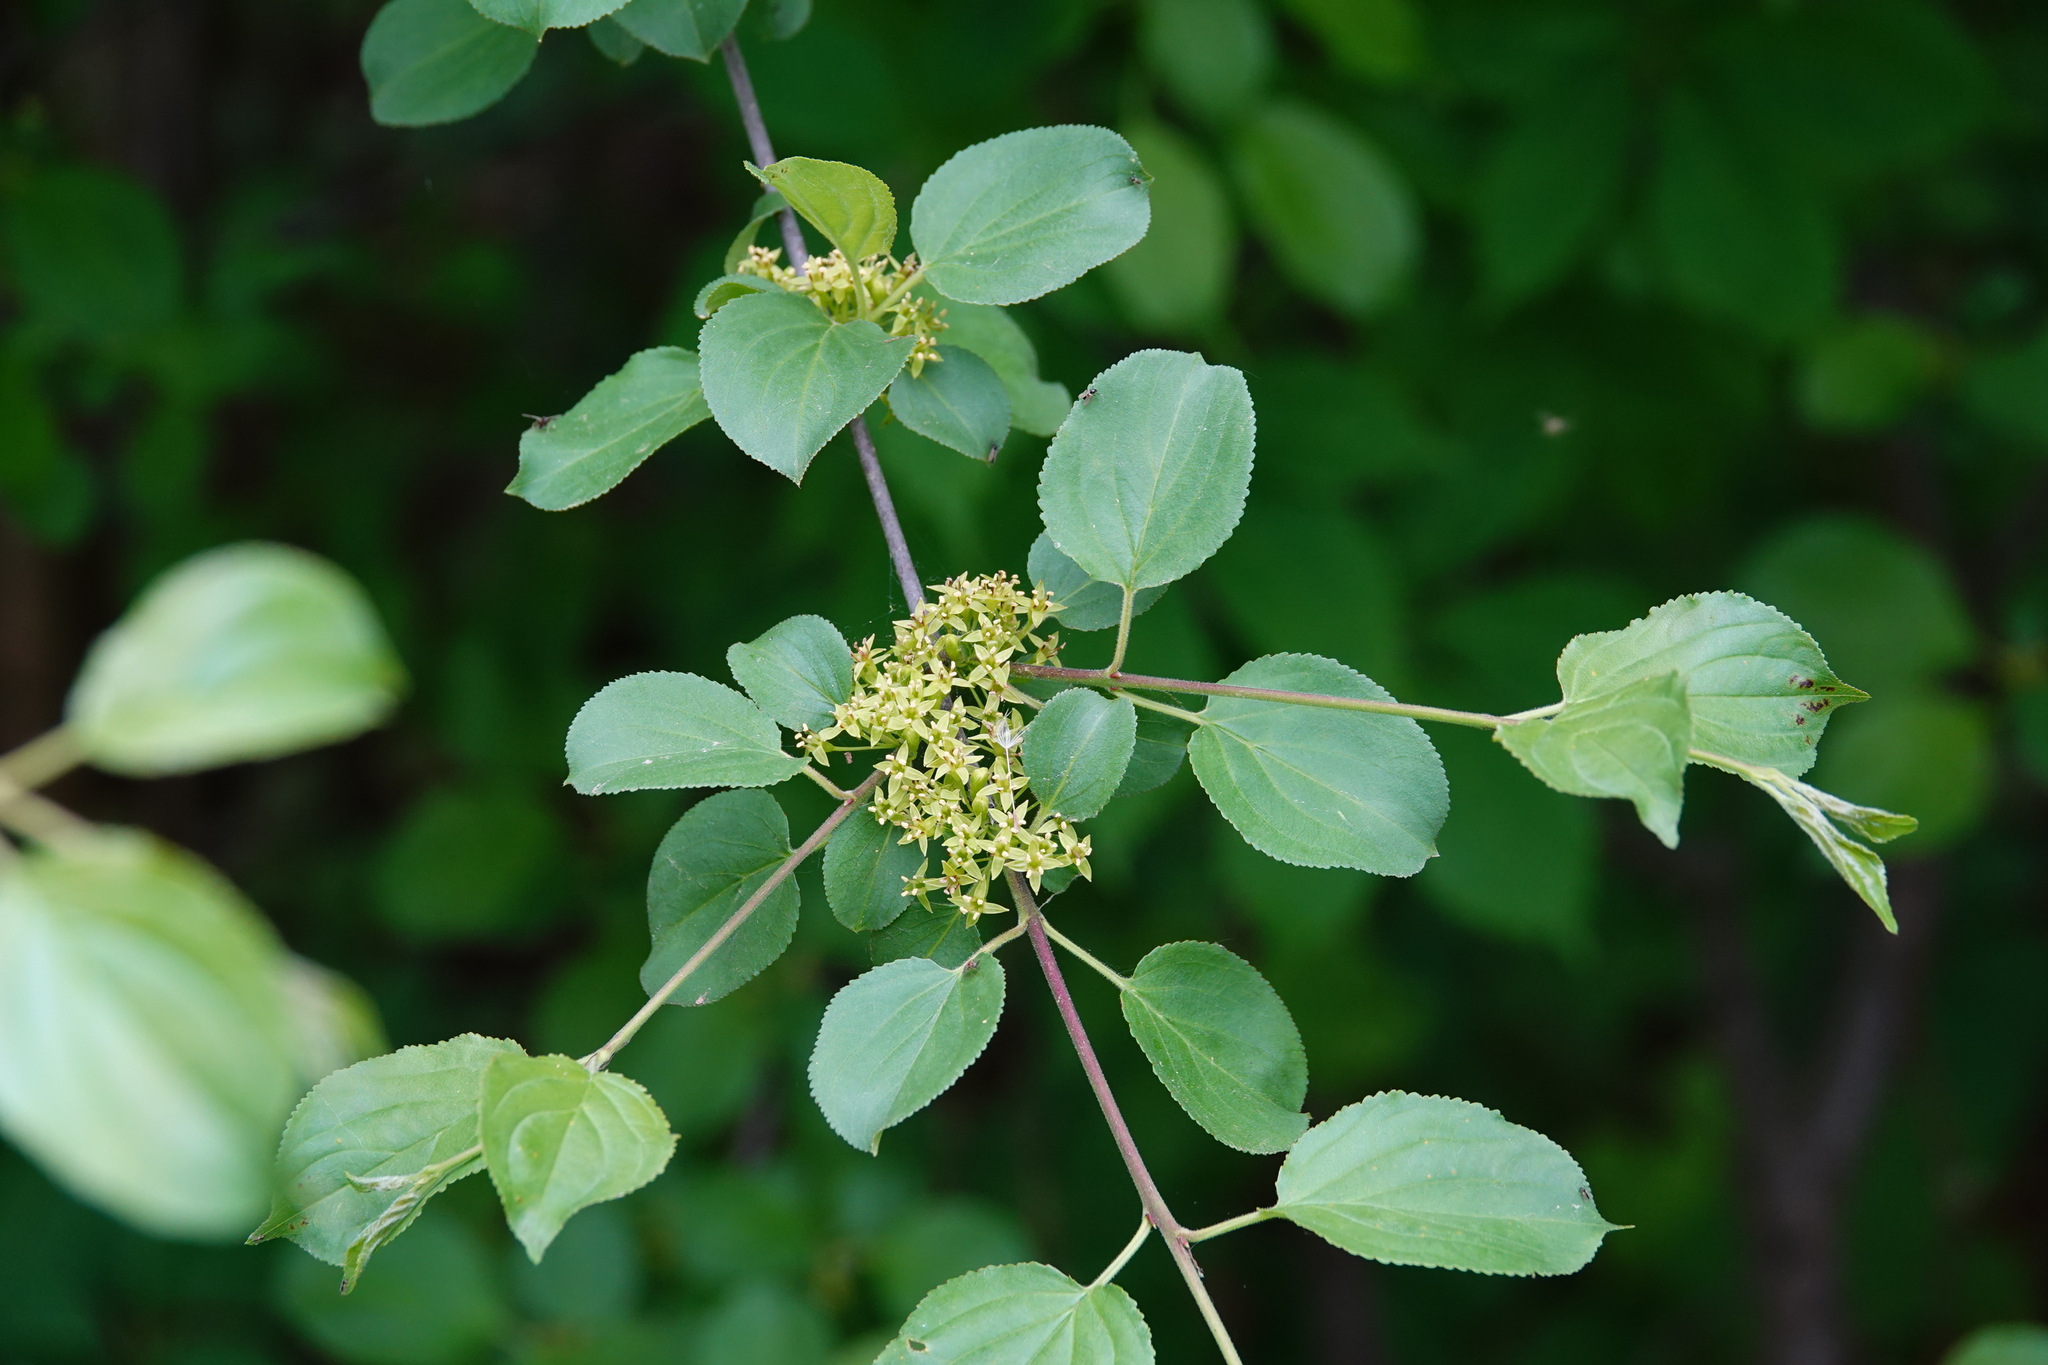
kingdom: Plantae
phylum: Tracheophyta
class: Magnoliopsida
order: Rosales
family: Rhamnaceae
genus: Rhamnus
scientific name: Rhamnus cathartica
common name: Common buckthorn
